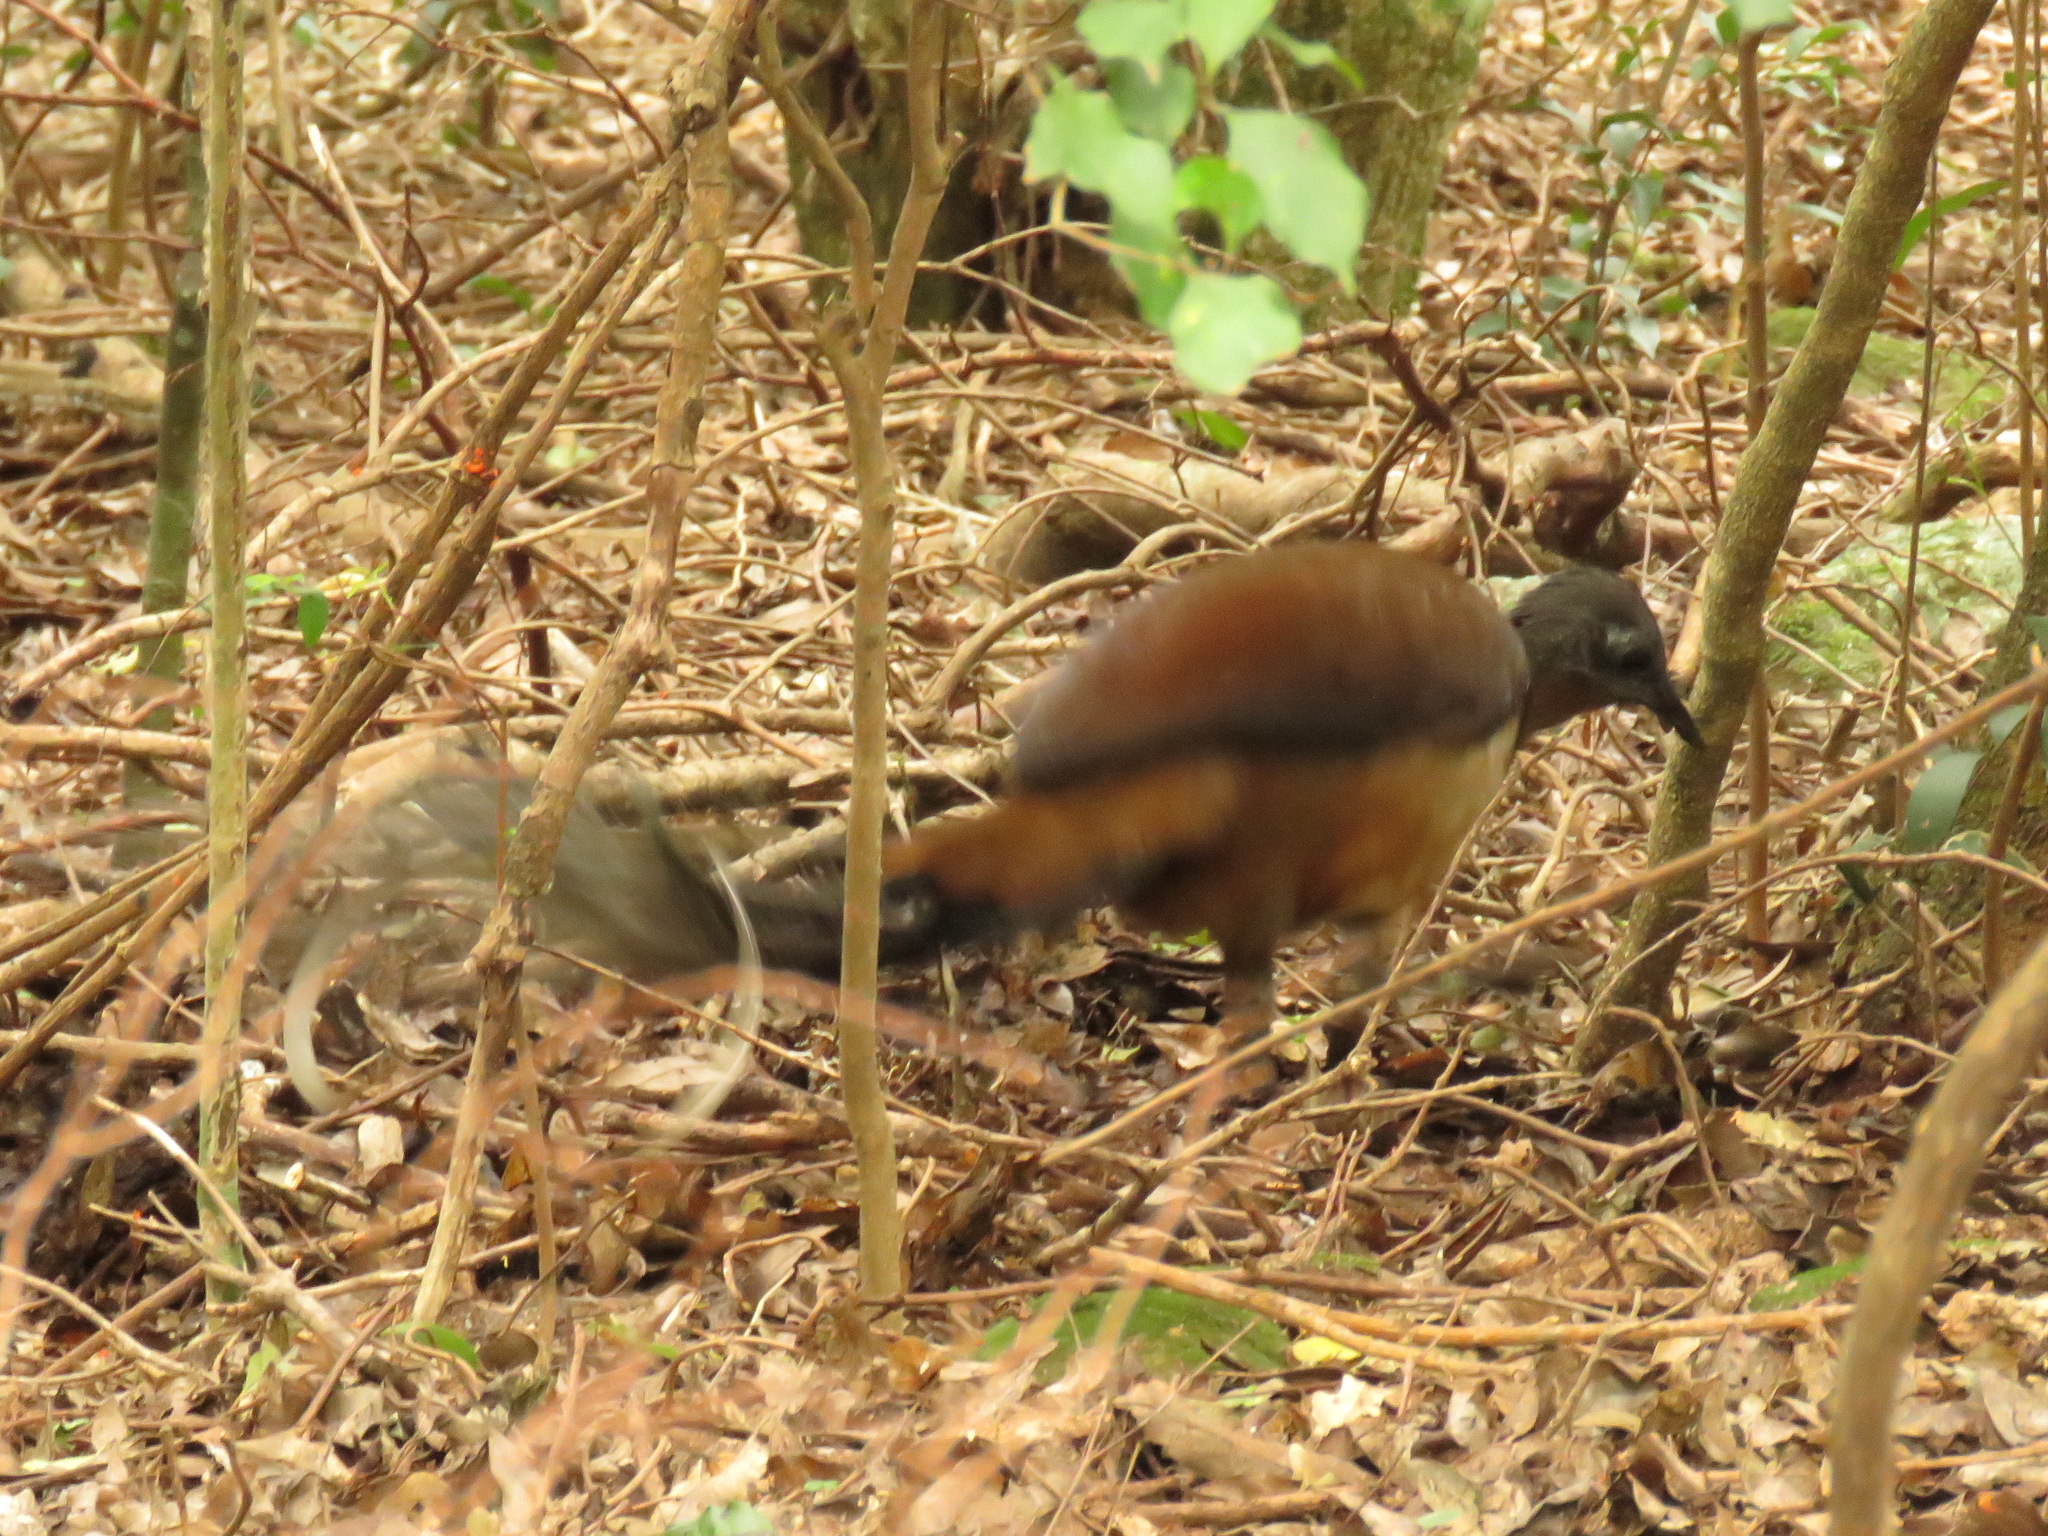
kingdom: Animalia
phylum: Chordata
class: Aves
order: Passeriformes
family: Menuridae
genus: Menura
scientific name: Menura alberti
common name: Albert's lyrebird
